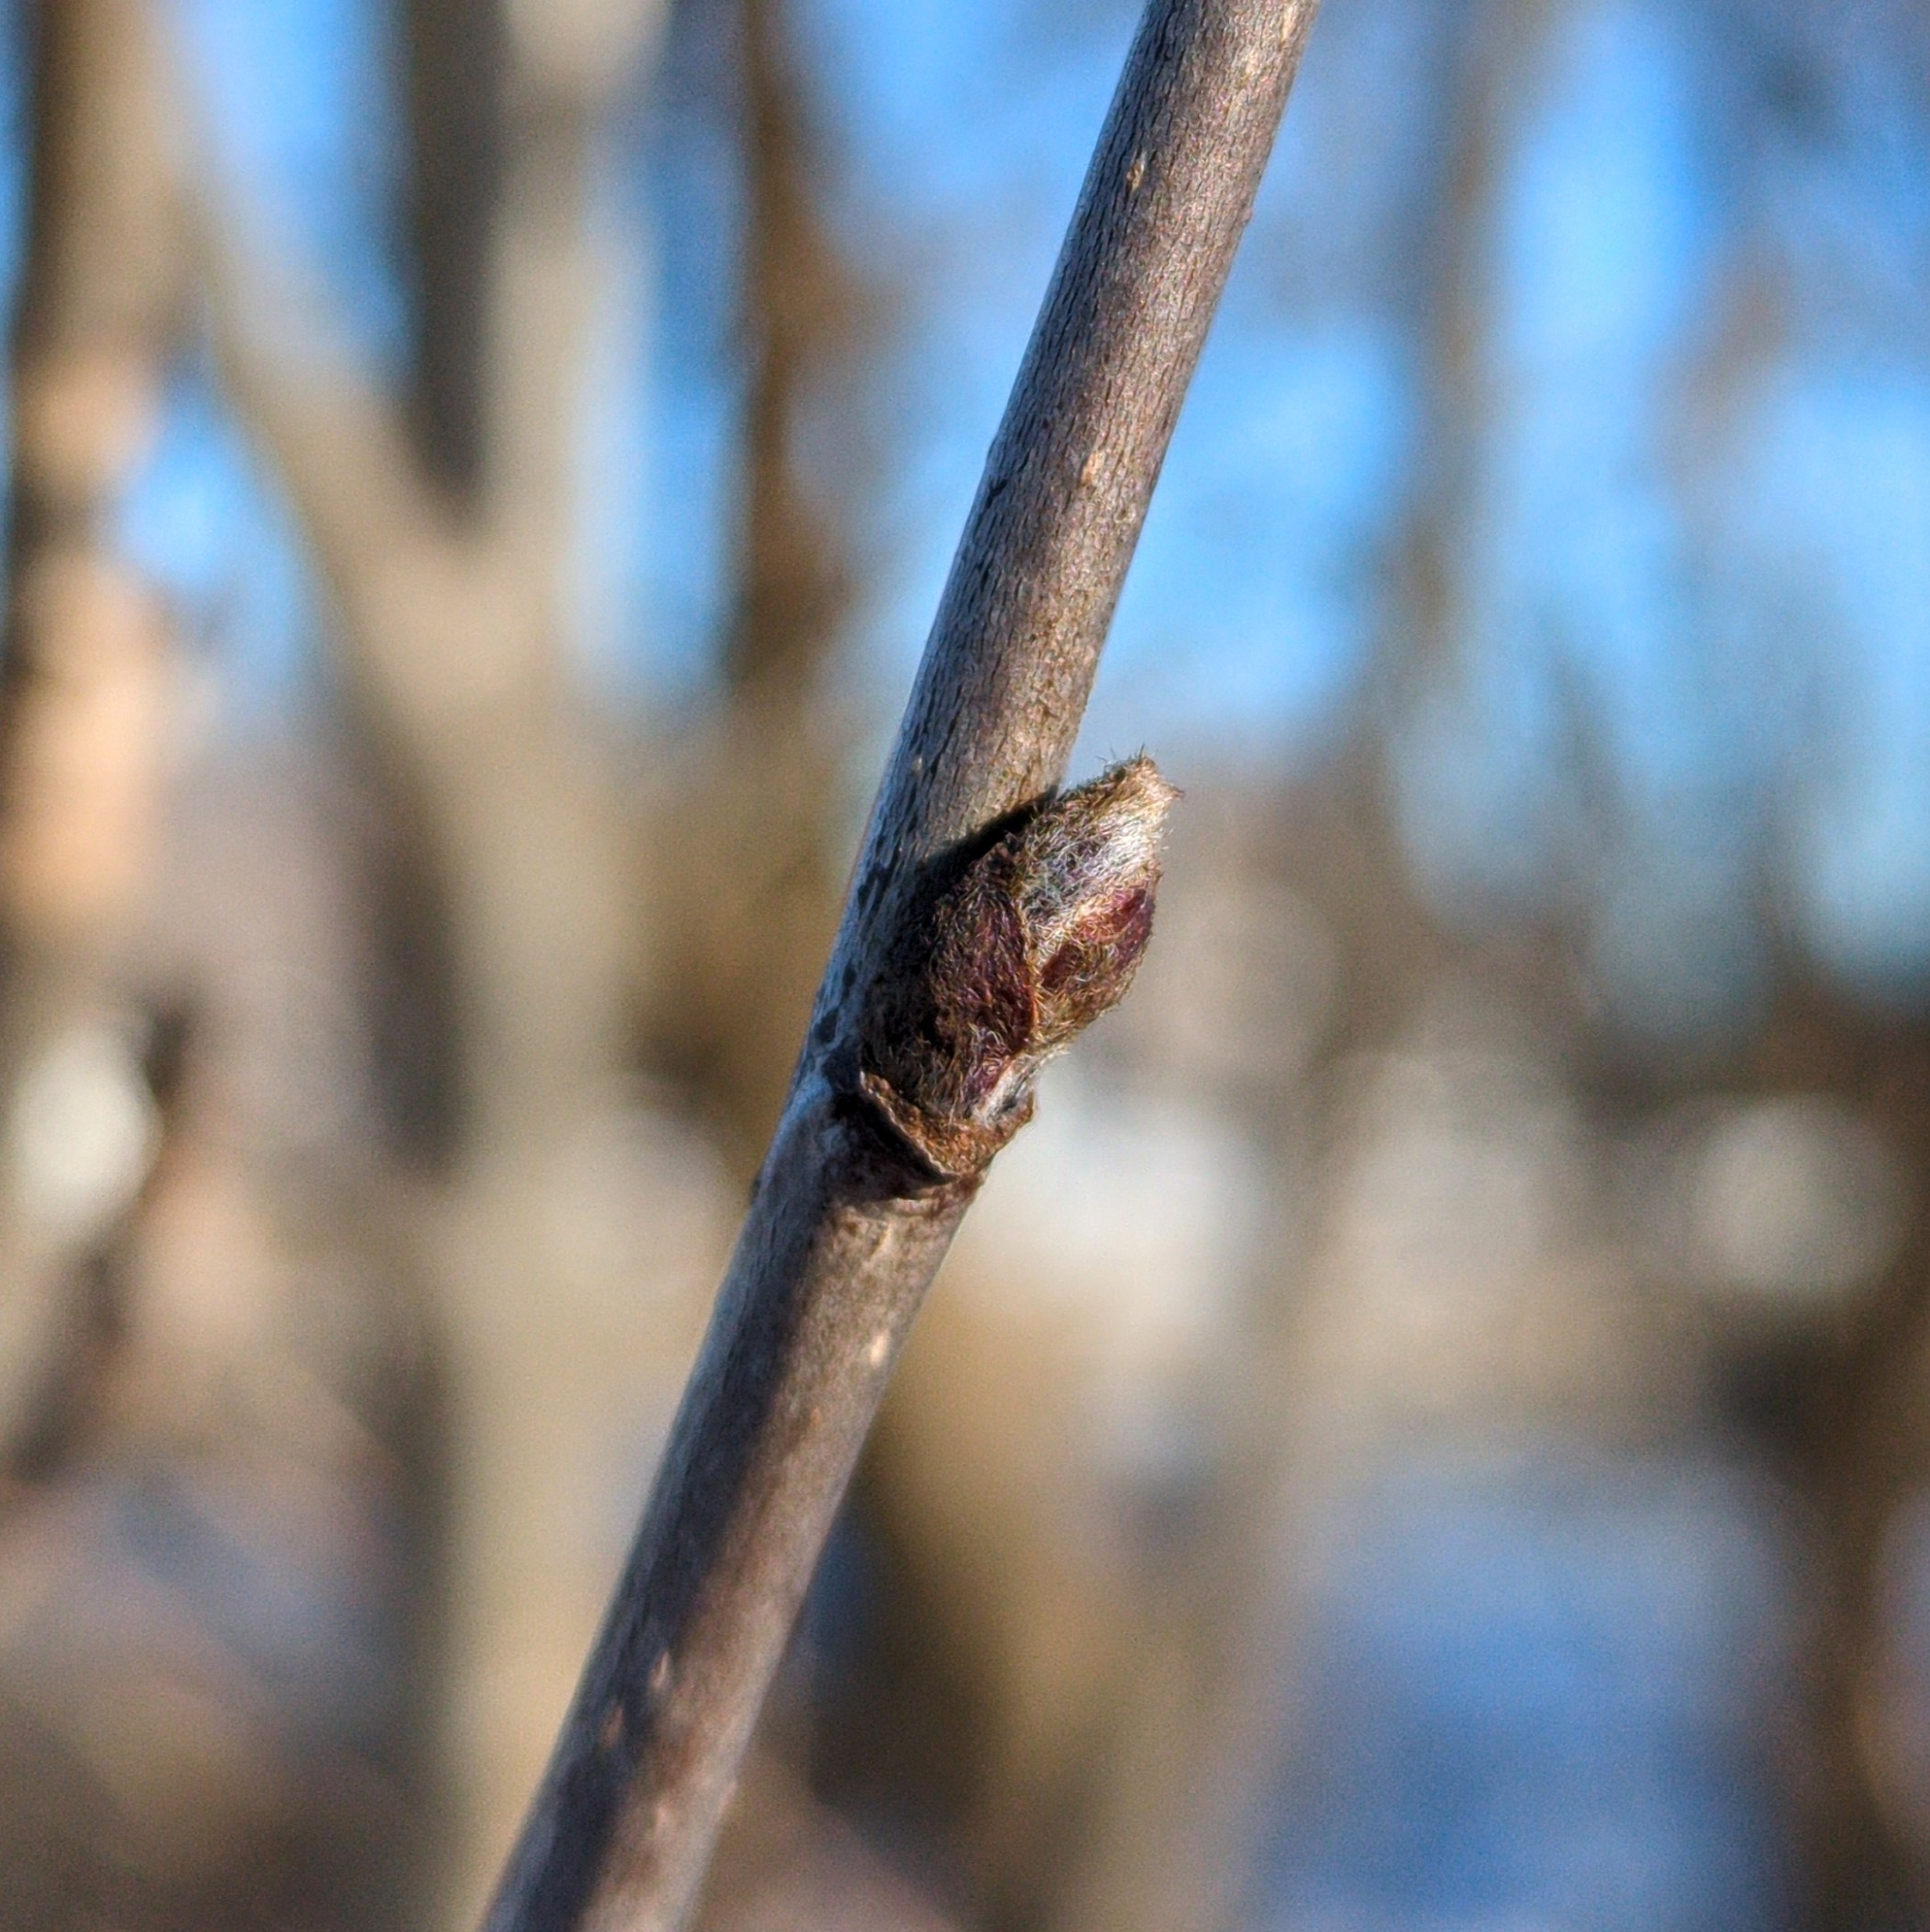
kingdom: Plantae
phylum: Tracheophyta
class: Magnoliopsida
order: Rosales
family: Rosaceae
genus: Sorbus
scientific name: Sorbus aucuparia
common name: Rowan
